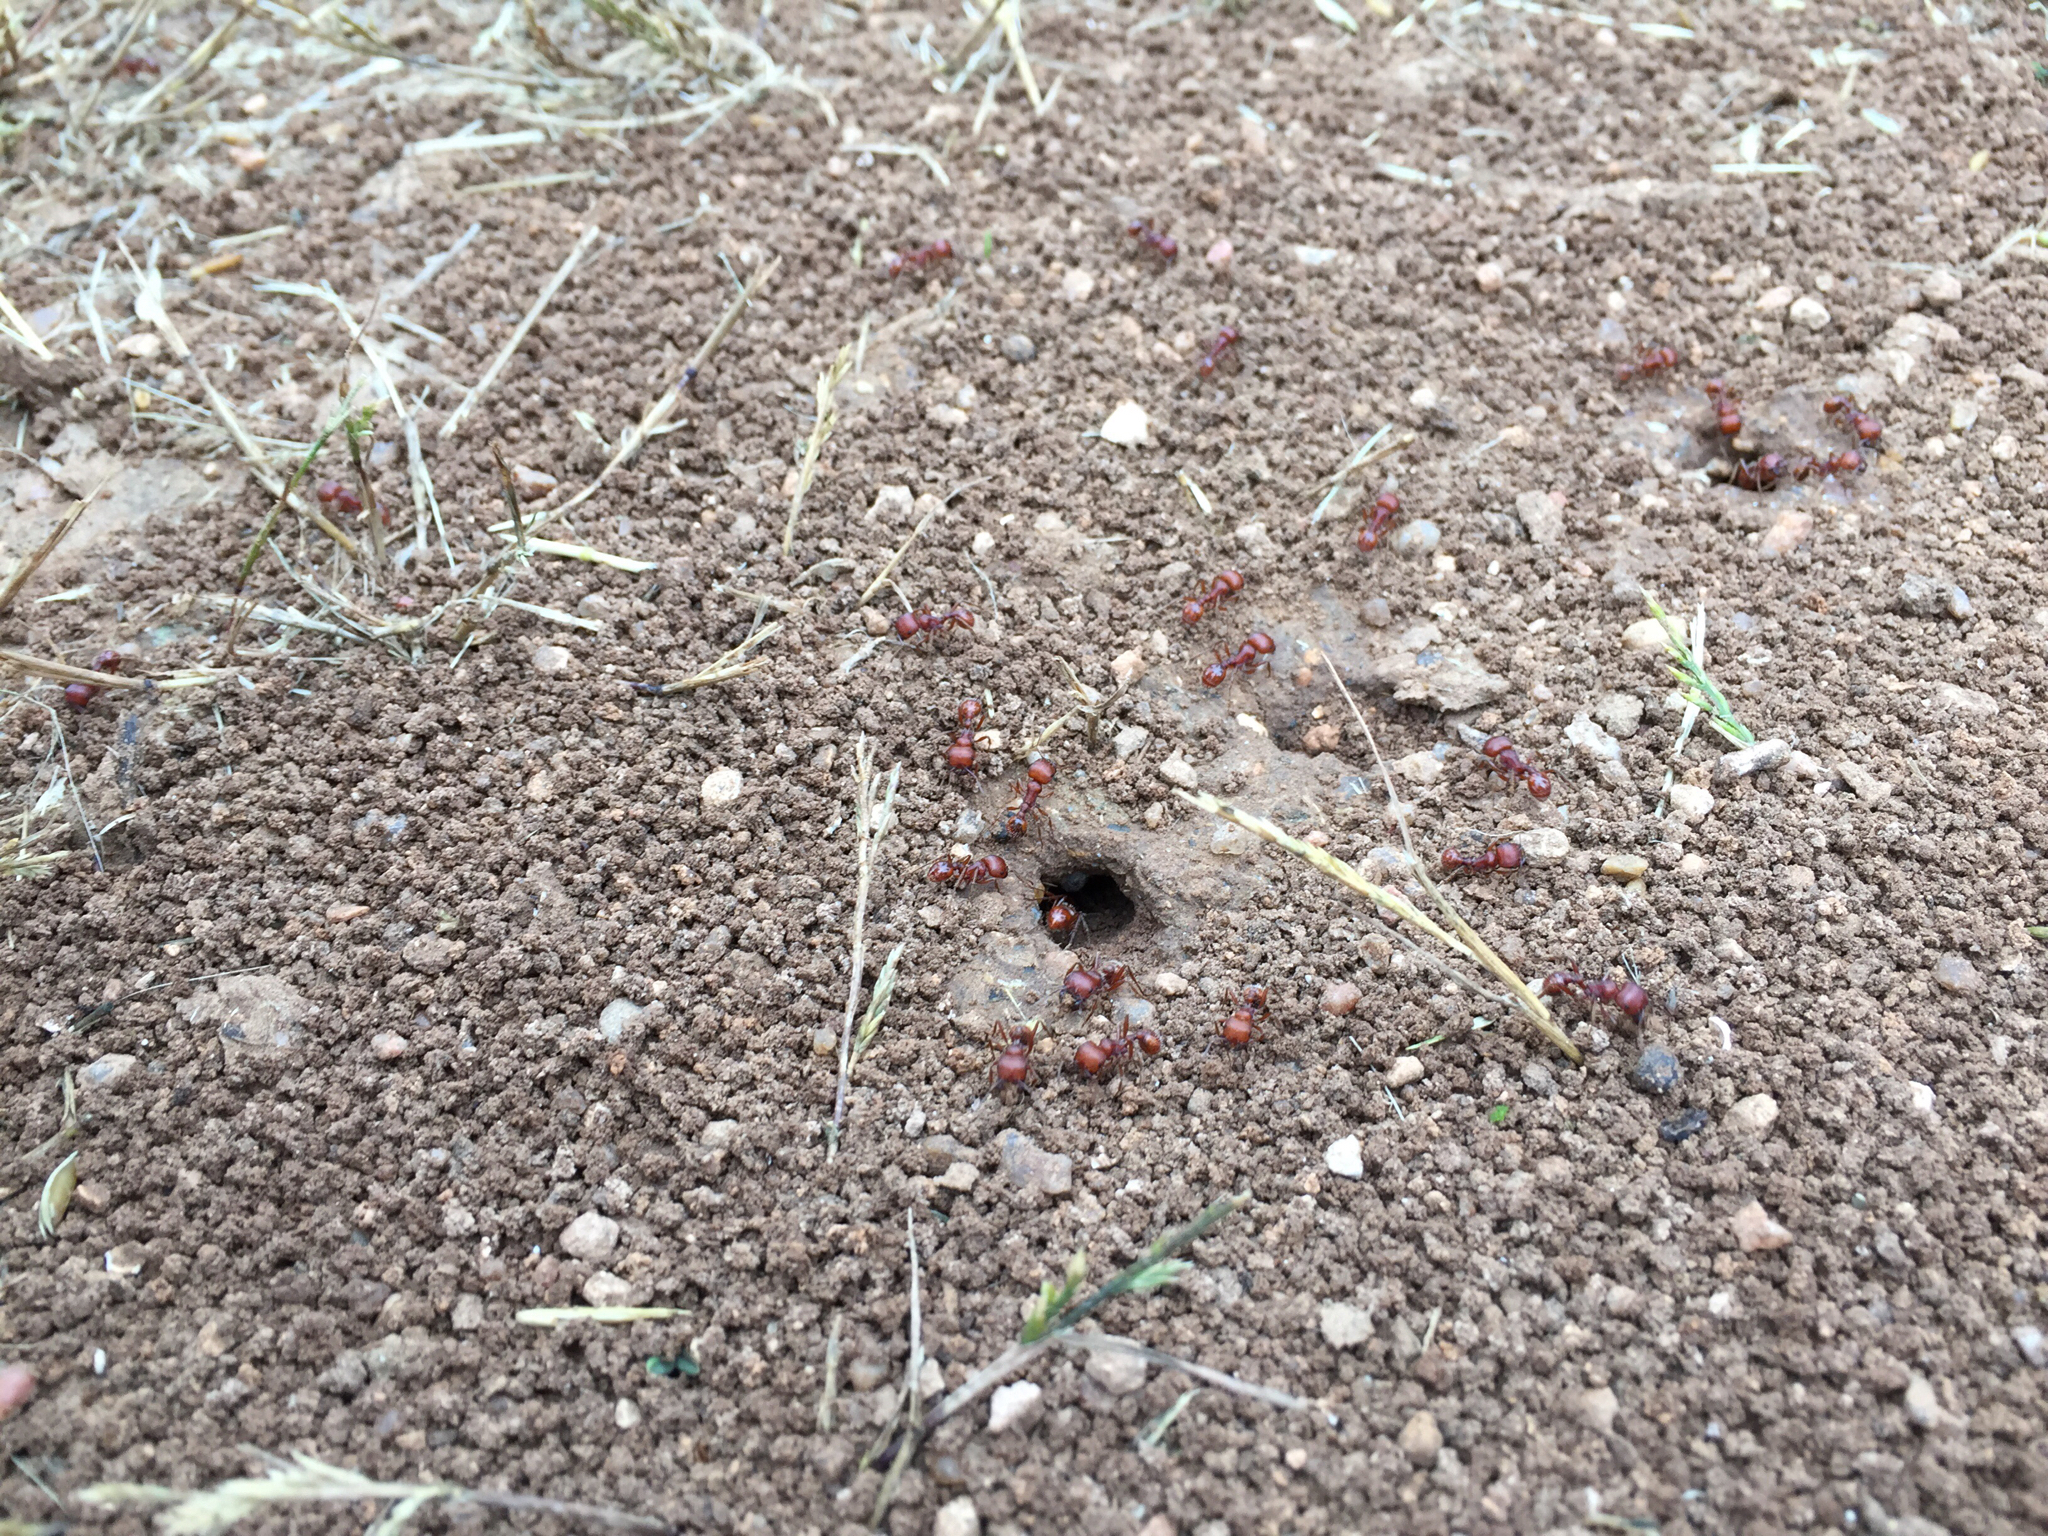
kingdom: Animalia
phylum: Arthropoda
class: Insecta
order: Hymenoptera
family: Formicidae
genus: Pogonomyrmex
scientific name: Pogonomyrmex barbatus
